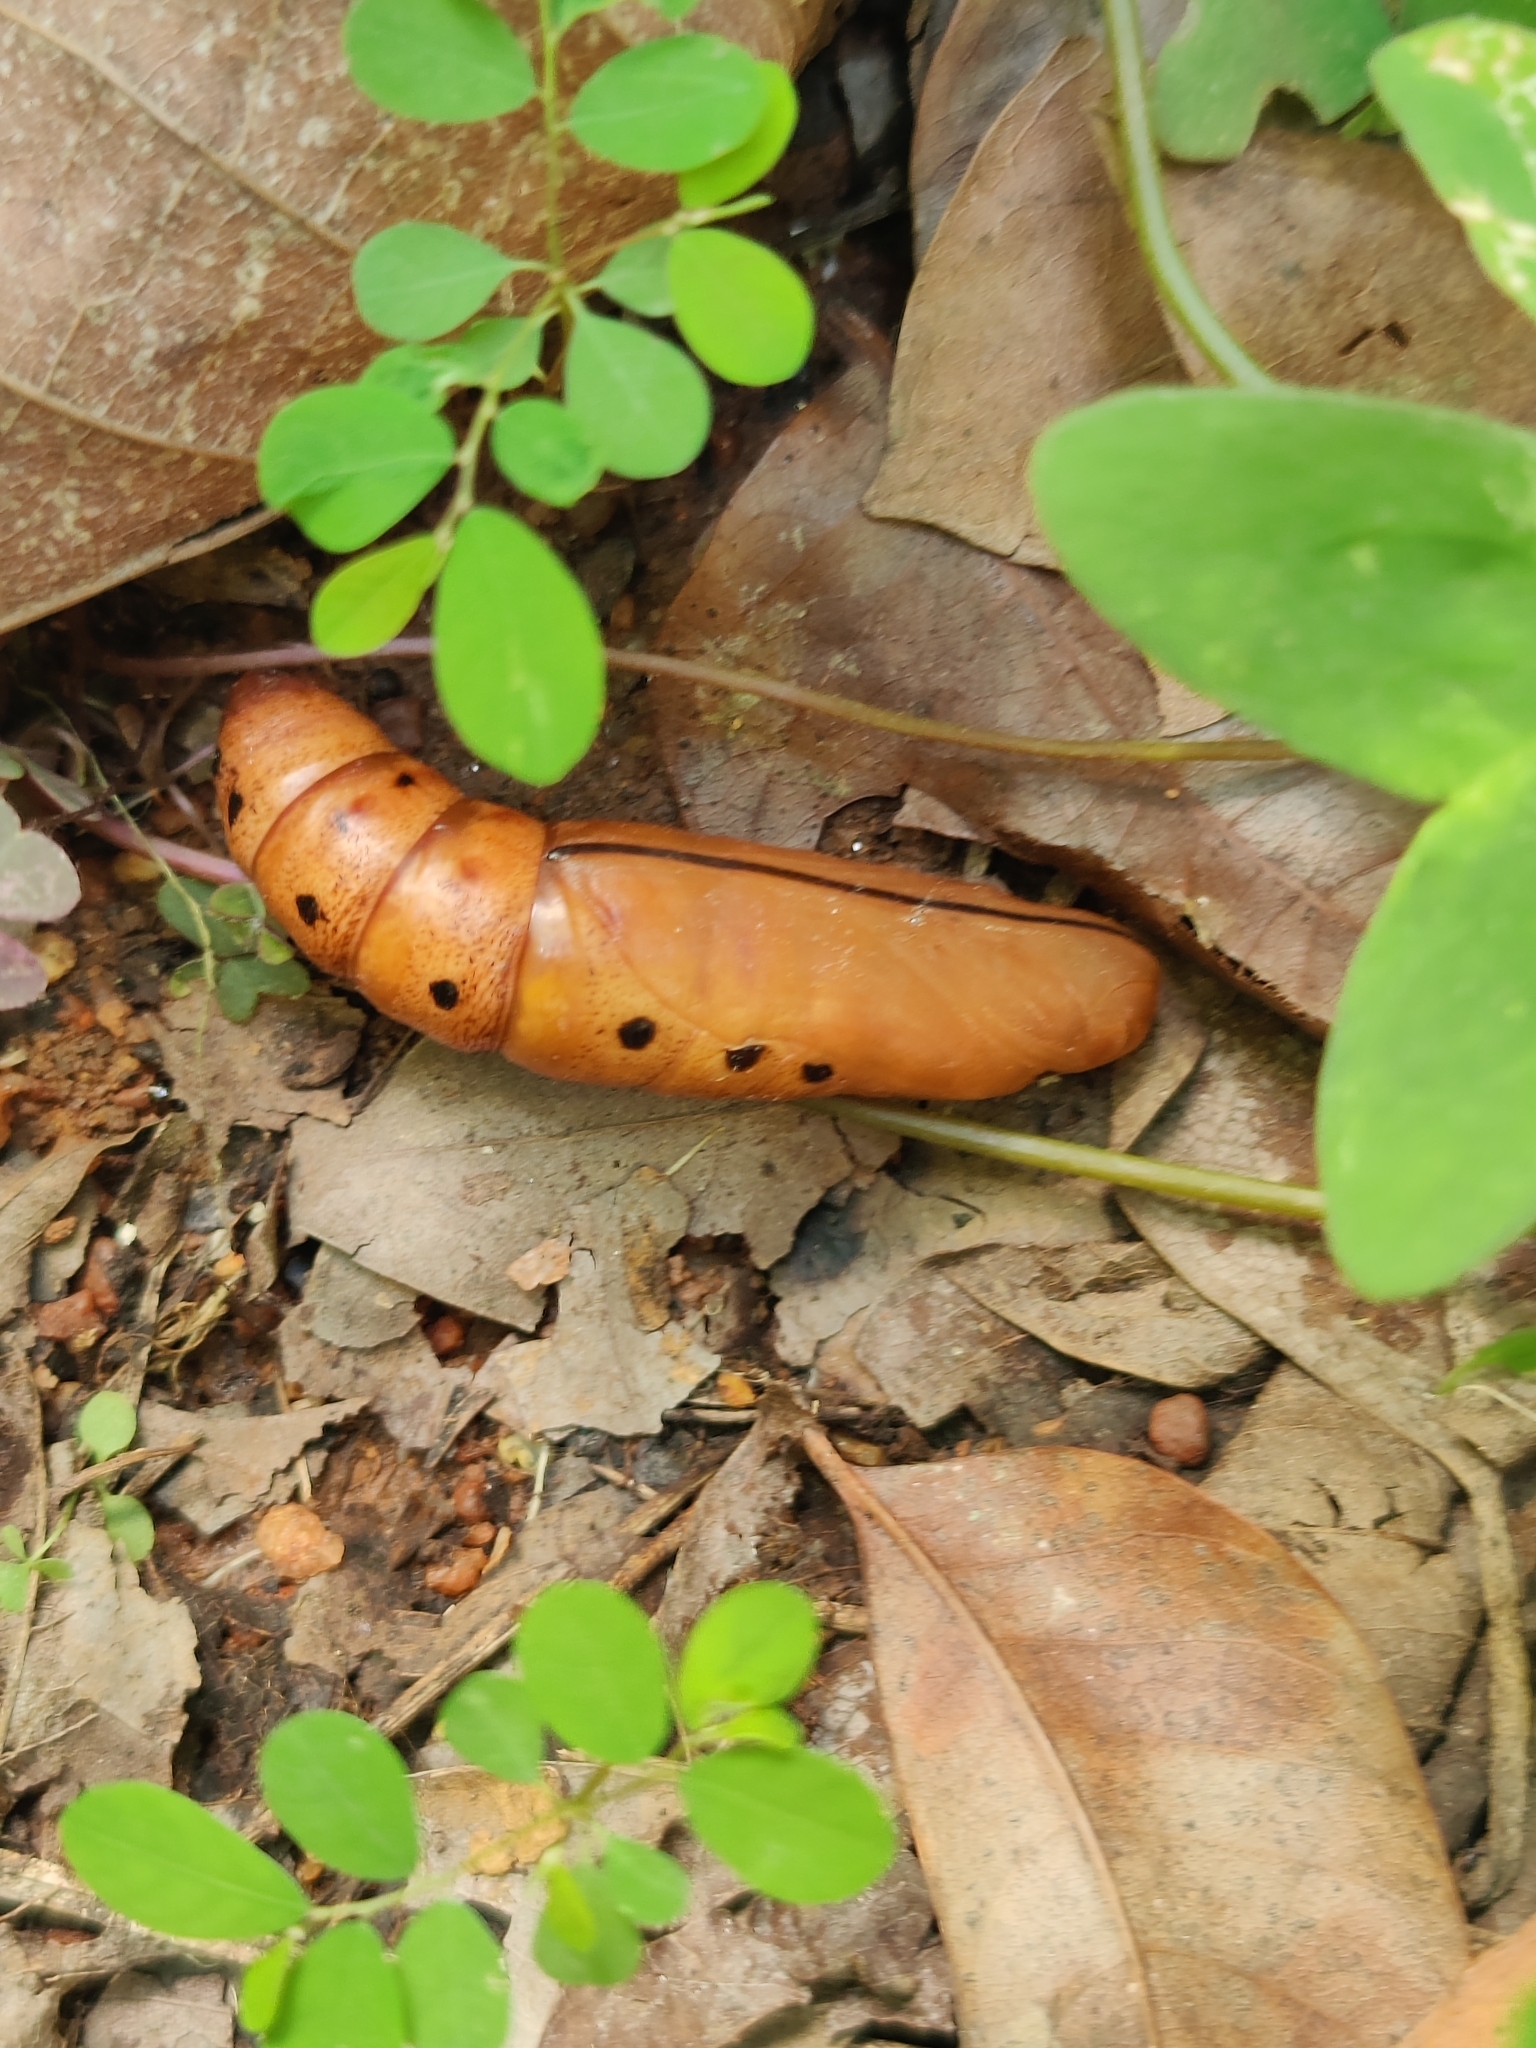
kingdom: Animalia
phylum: Arthropoda
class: Insecta
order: Lepidoptera
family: Sphingidae
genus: Daphnis
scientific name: Daphnis nerii
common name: Oleander hawk-moth
